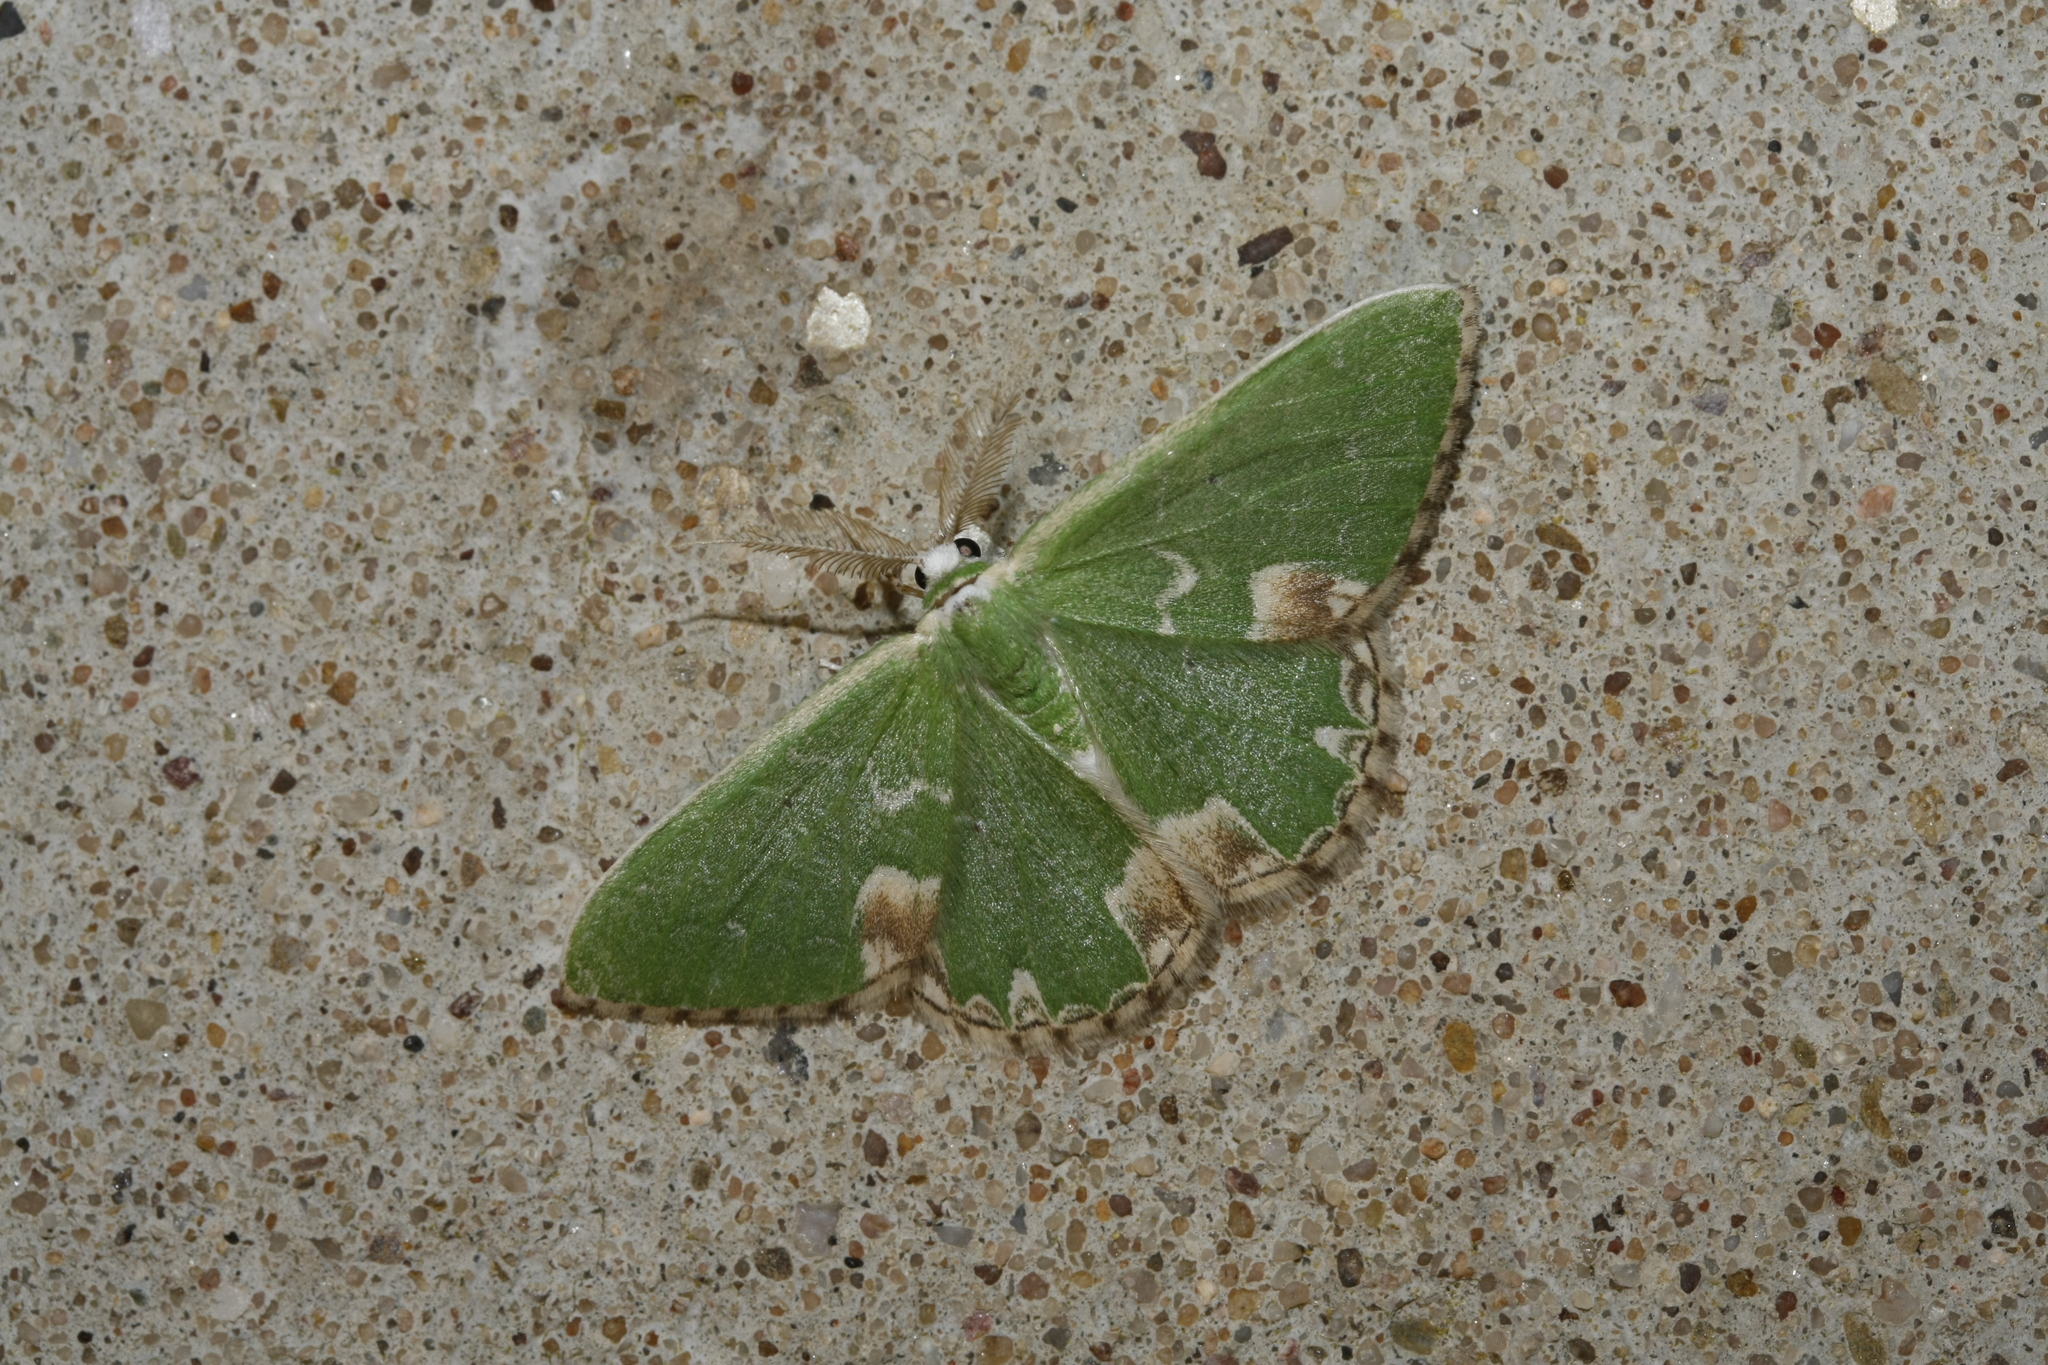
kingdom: Animalia
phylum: Arthropoda
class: Insecta
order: Lepidoptera
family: Geometridae
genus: Comibaena
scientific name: Comibaena bajularia
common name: Blotched emerald
